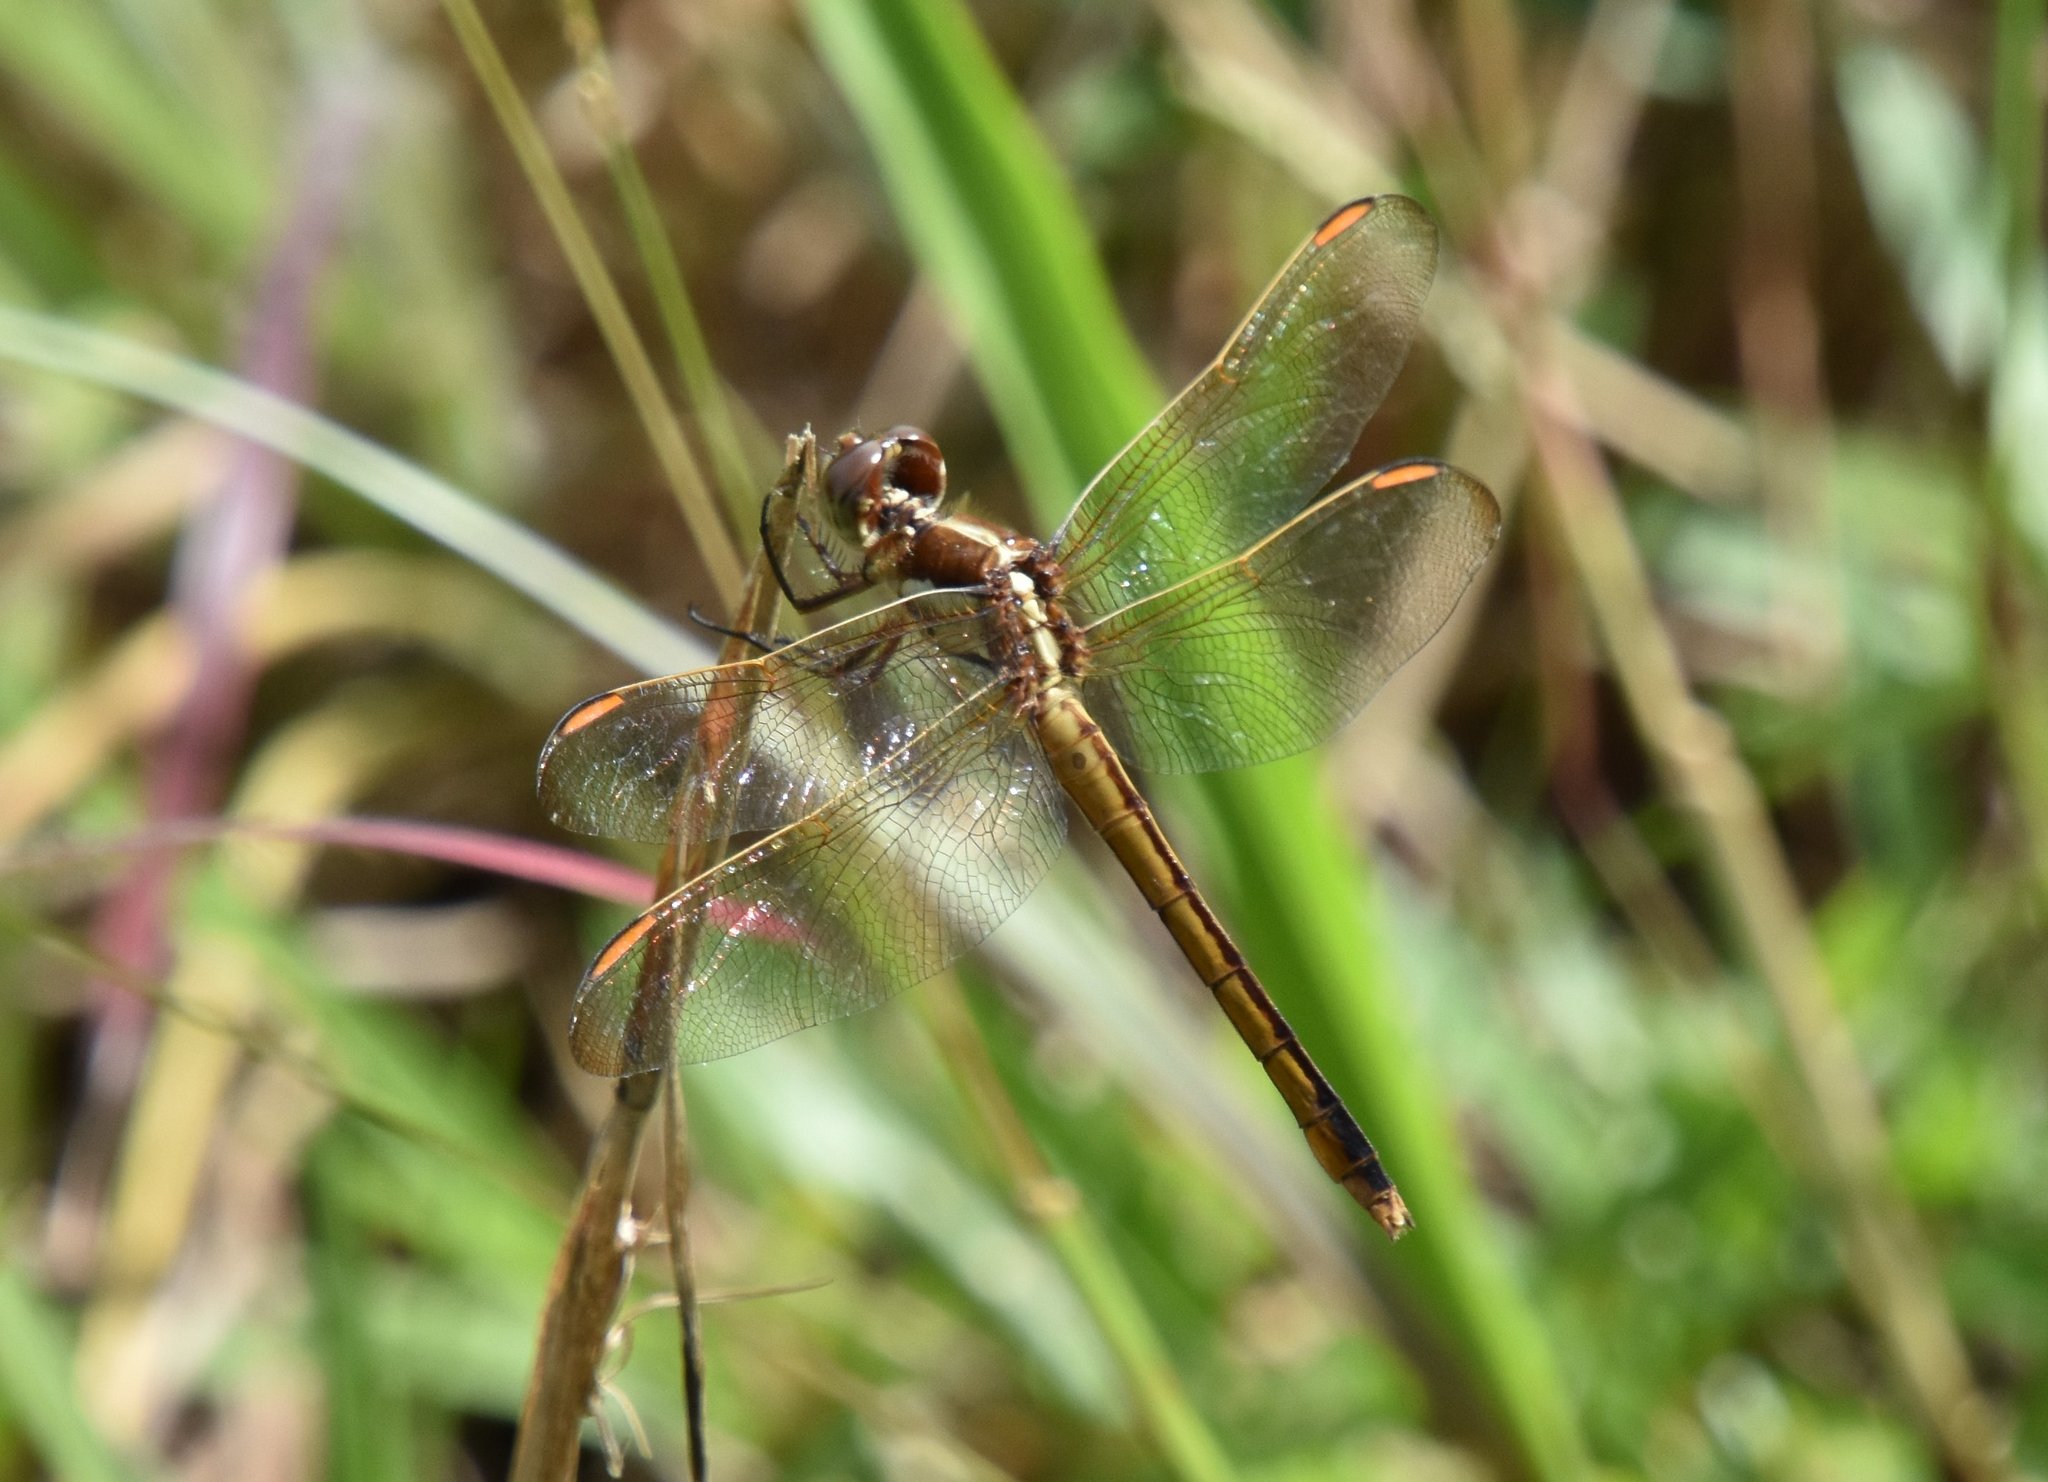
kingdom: Animalia
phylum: Arthropoda
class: Insecta
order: Odonata
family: Libellulidae
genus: Libellula
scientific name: Libellula auripennis
